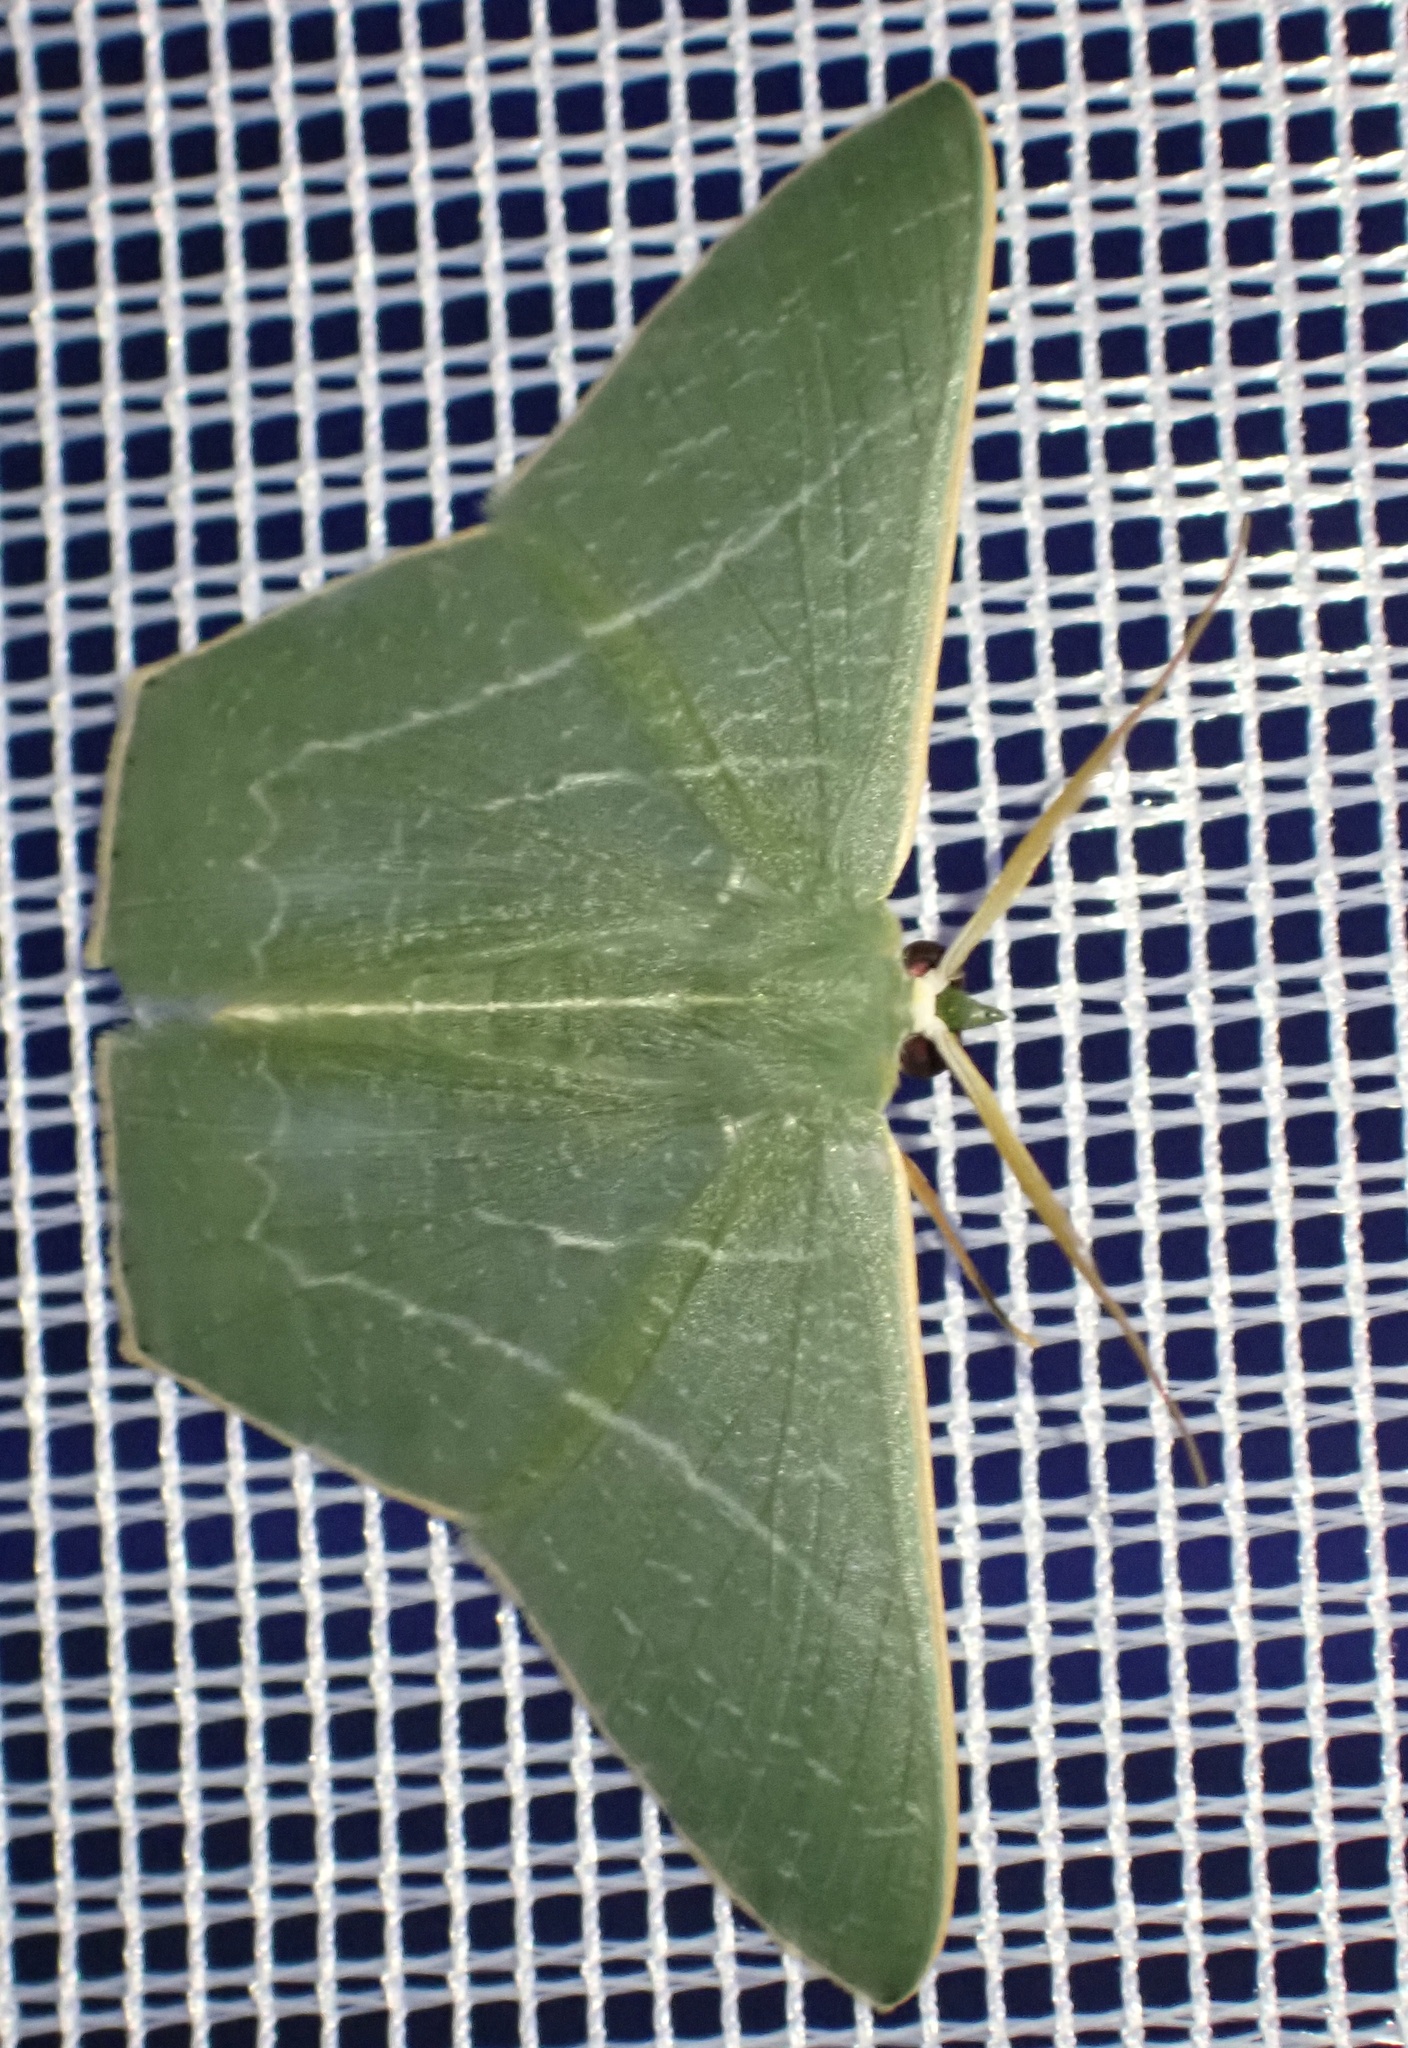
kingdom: Animalia
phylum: Arthropoda
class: Insecta
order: Lepidoptera
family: Geometridae
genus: Thalassodes
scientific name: Thalassodes dorsilinea
